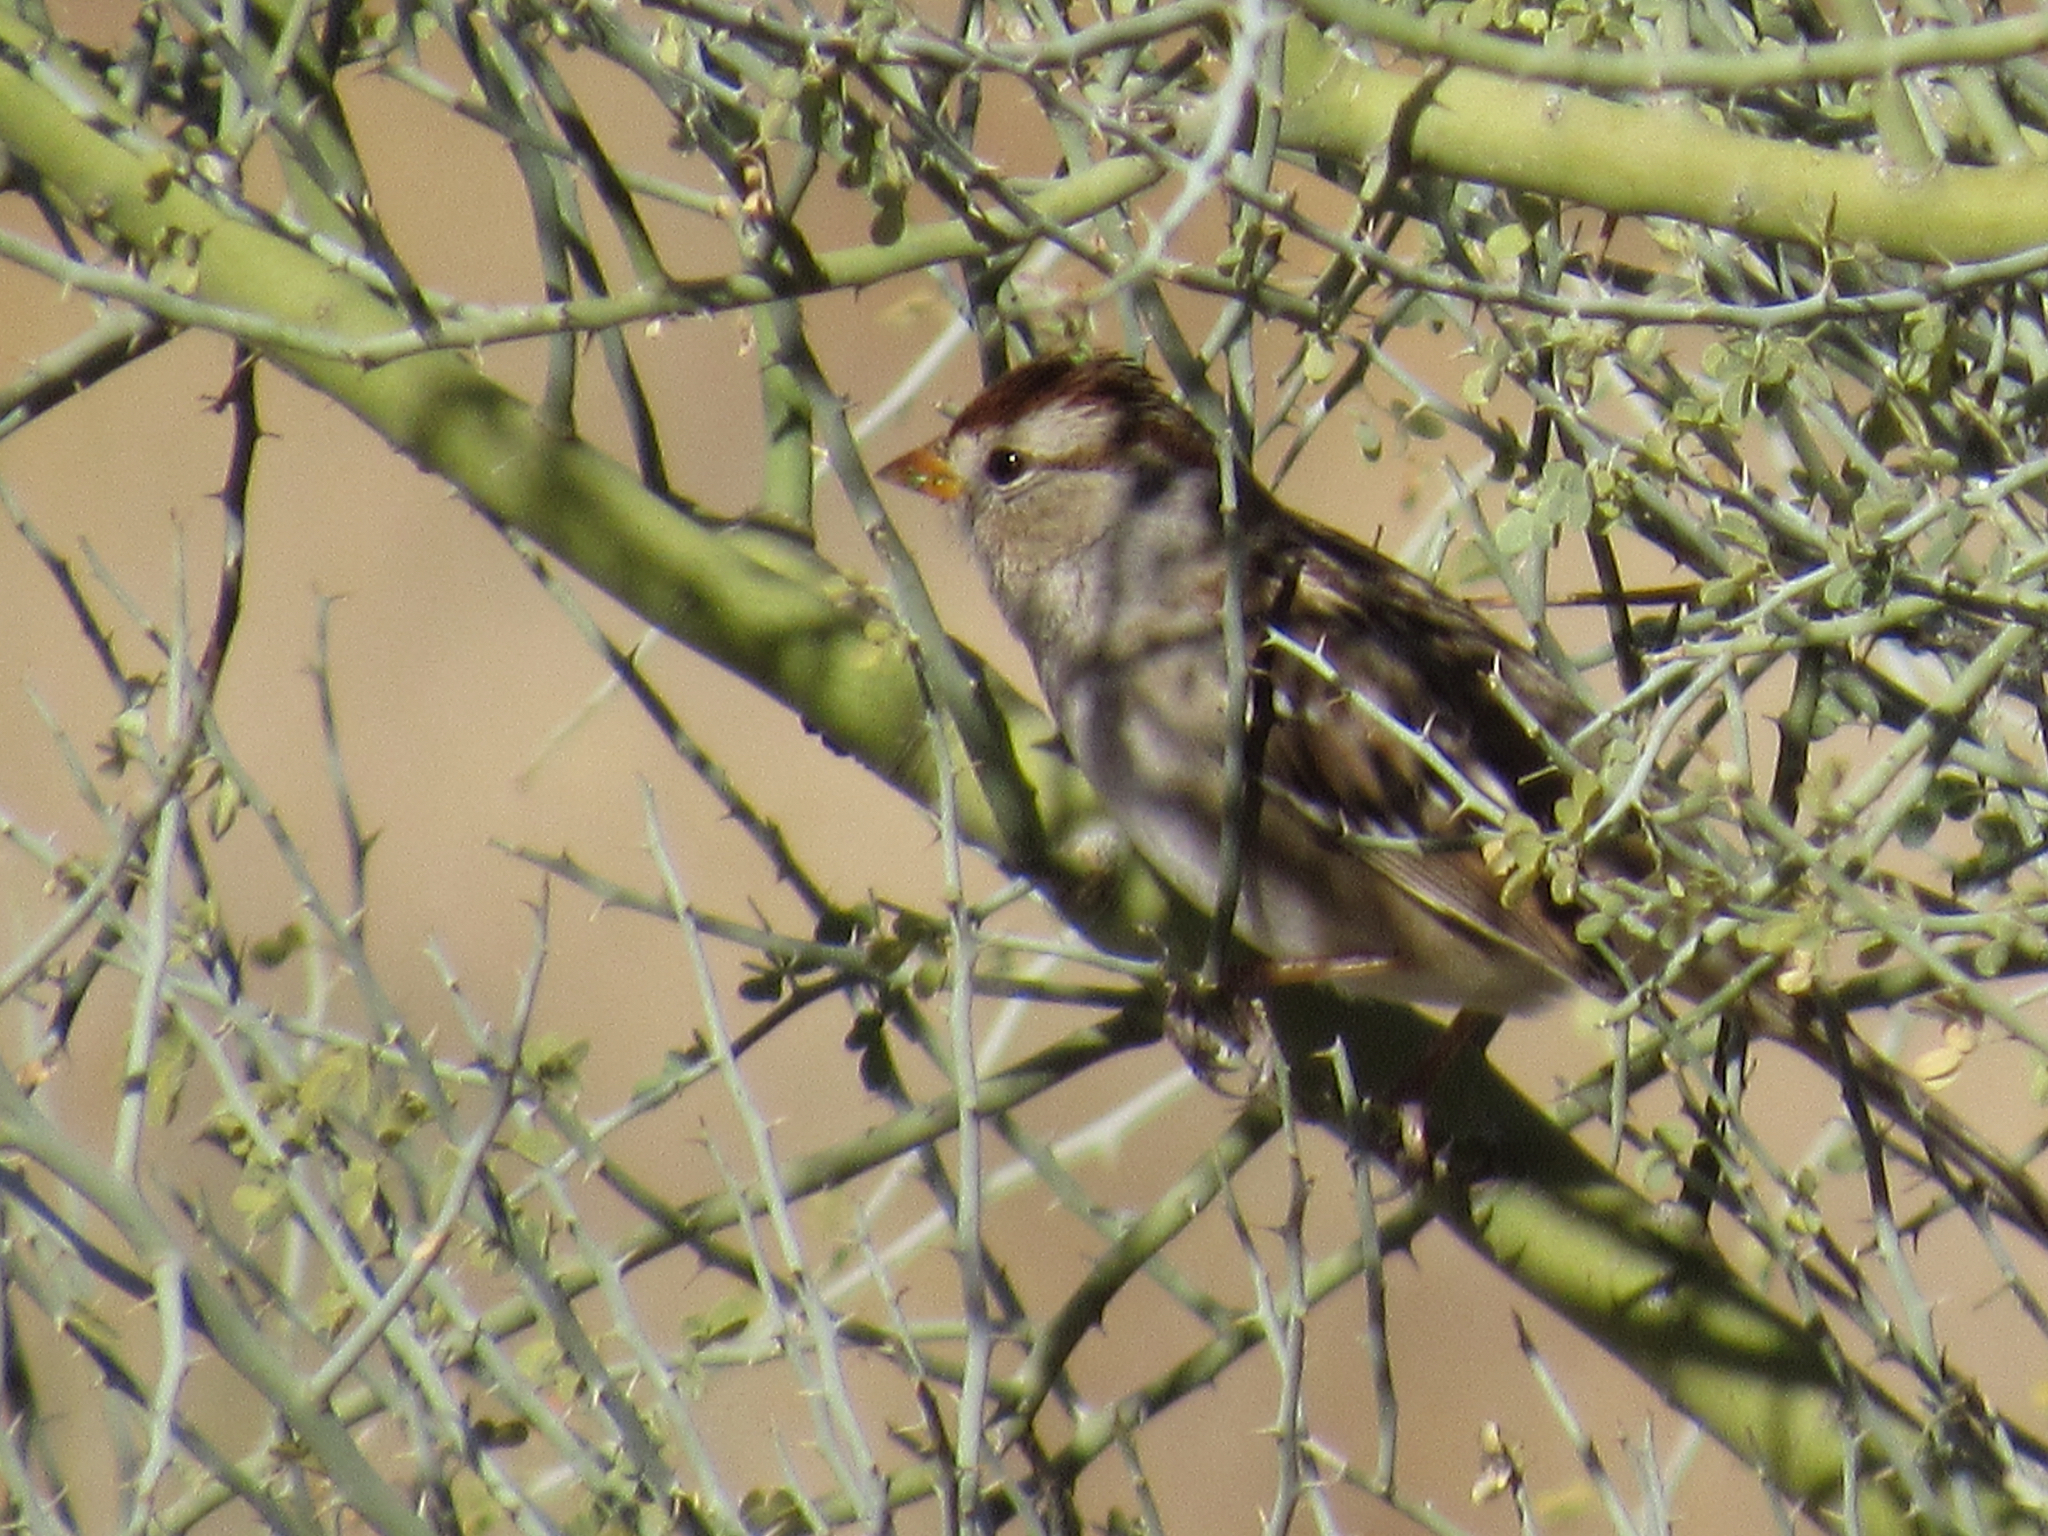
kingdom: Animalia
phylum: Chordata
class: Aves
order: Passeriformes
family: Passerellidae
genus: Zonotrichia
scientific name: Zonotrichia leucophrys
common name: White-crowned sparrow
